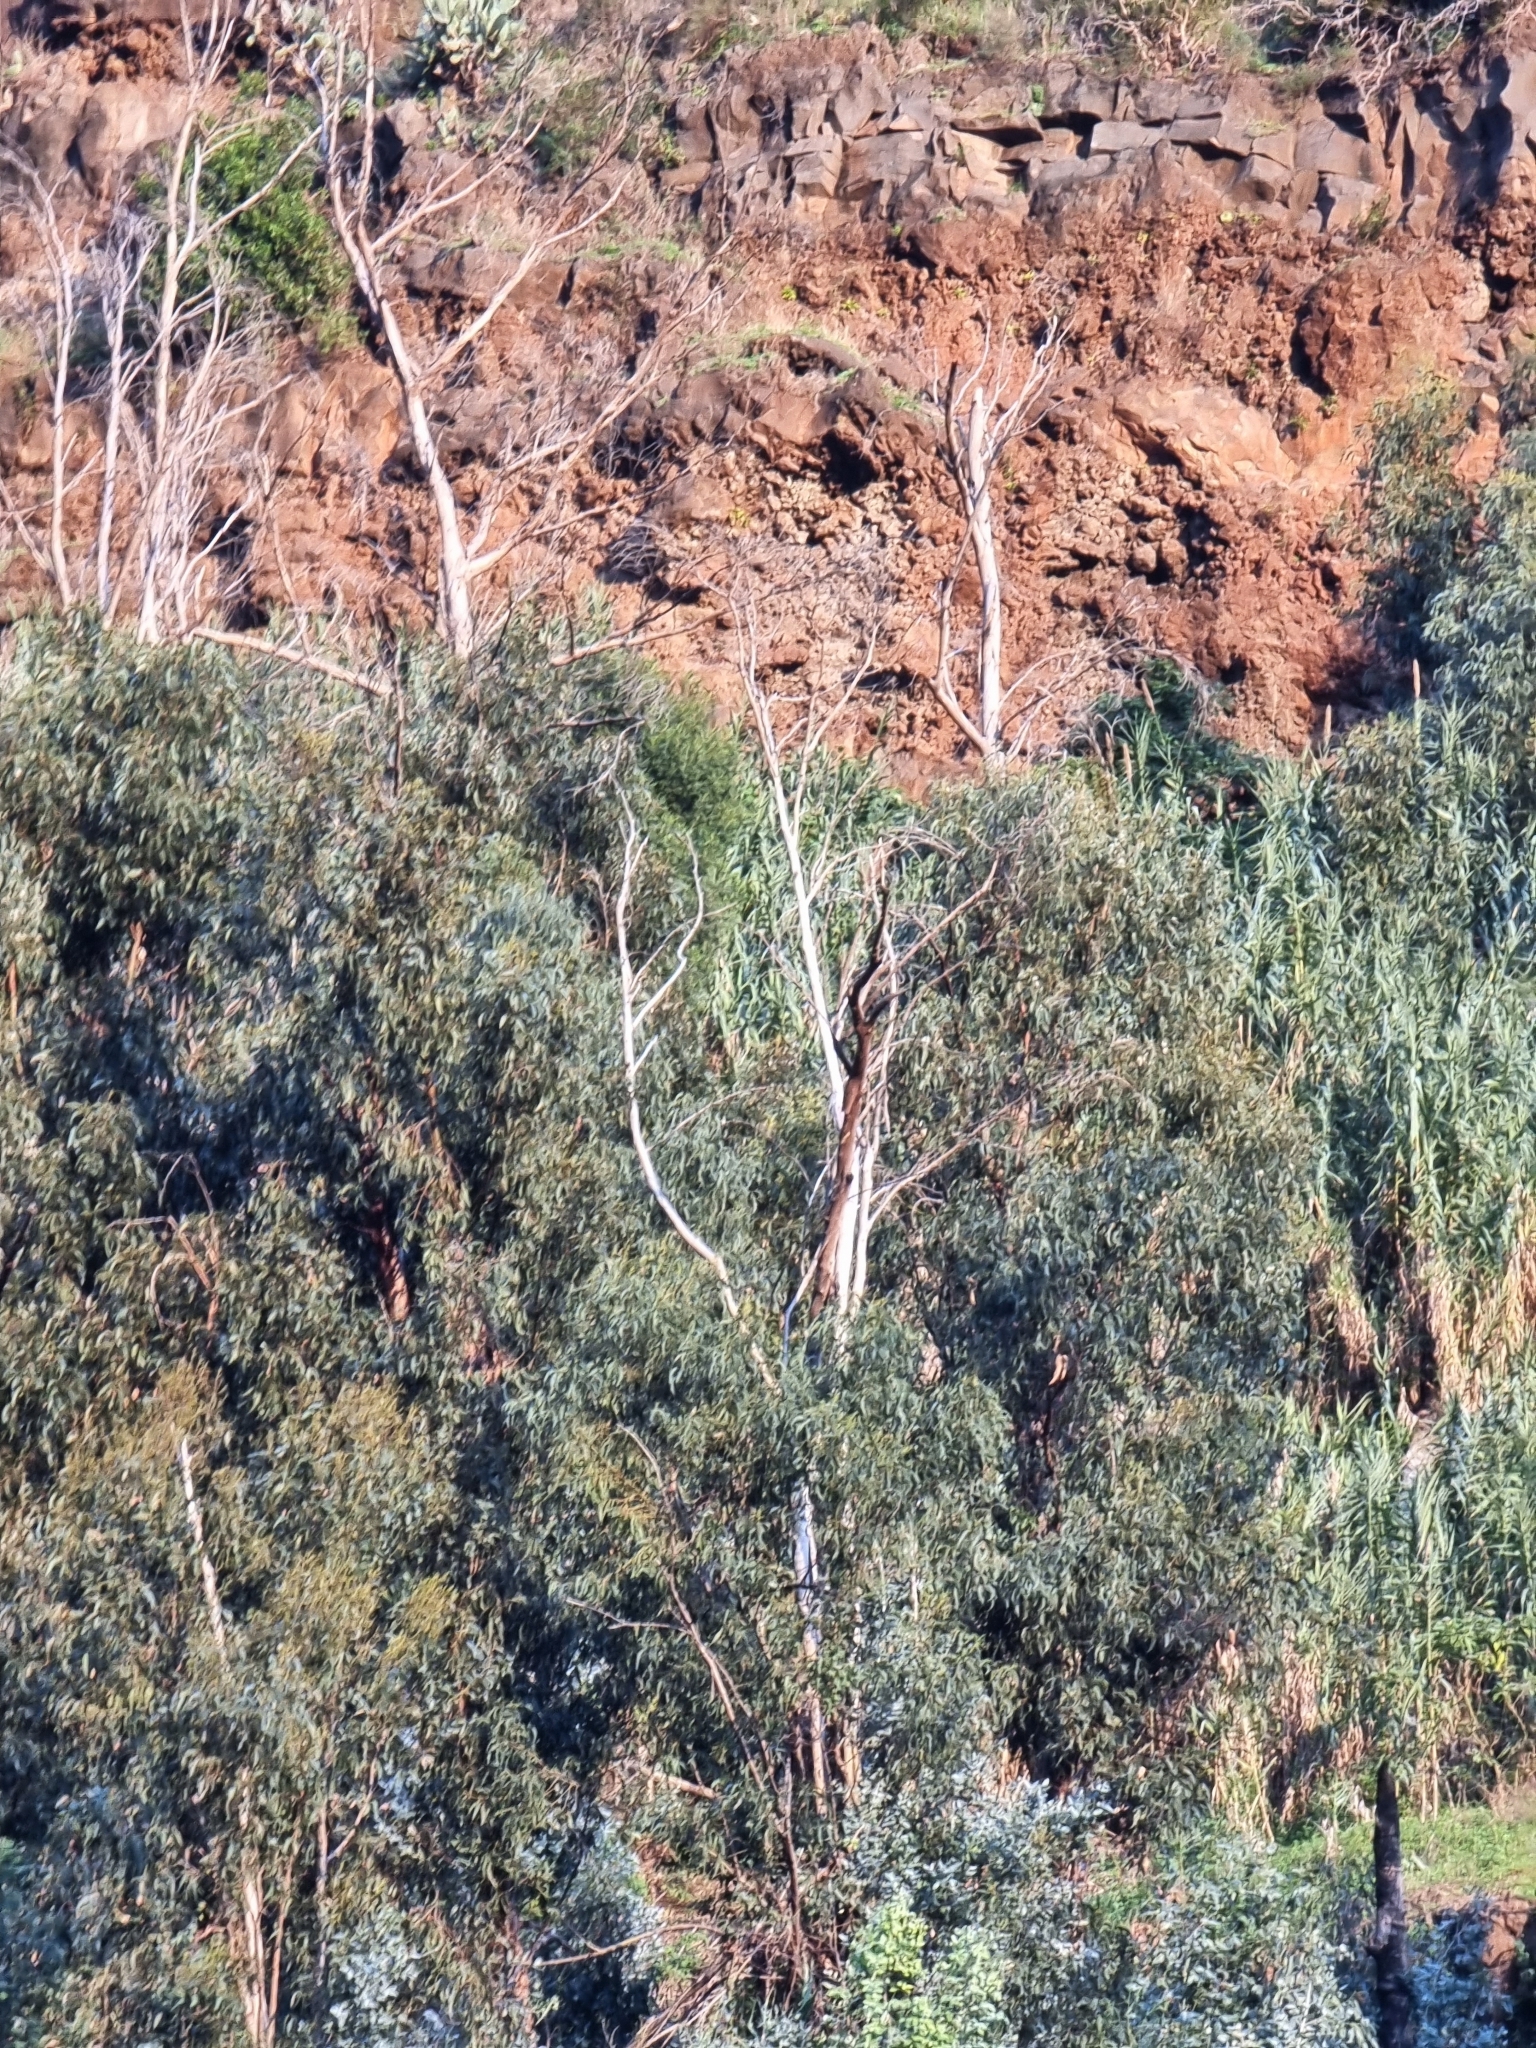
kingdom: Plantae
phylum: Tracheophyta
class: Magnoliopsida
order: Myrtales
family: Myrtaceae
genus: Eucalyptus
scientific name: Eucalyptus globulus
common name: Southern blue-gum
